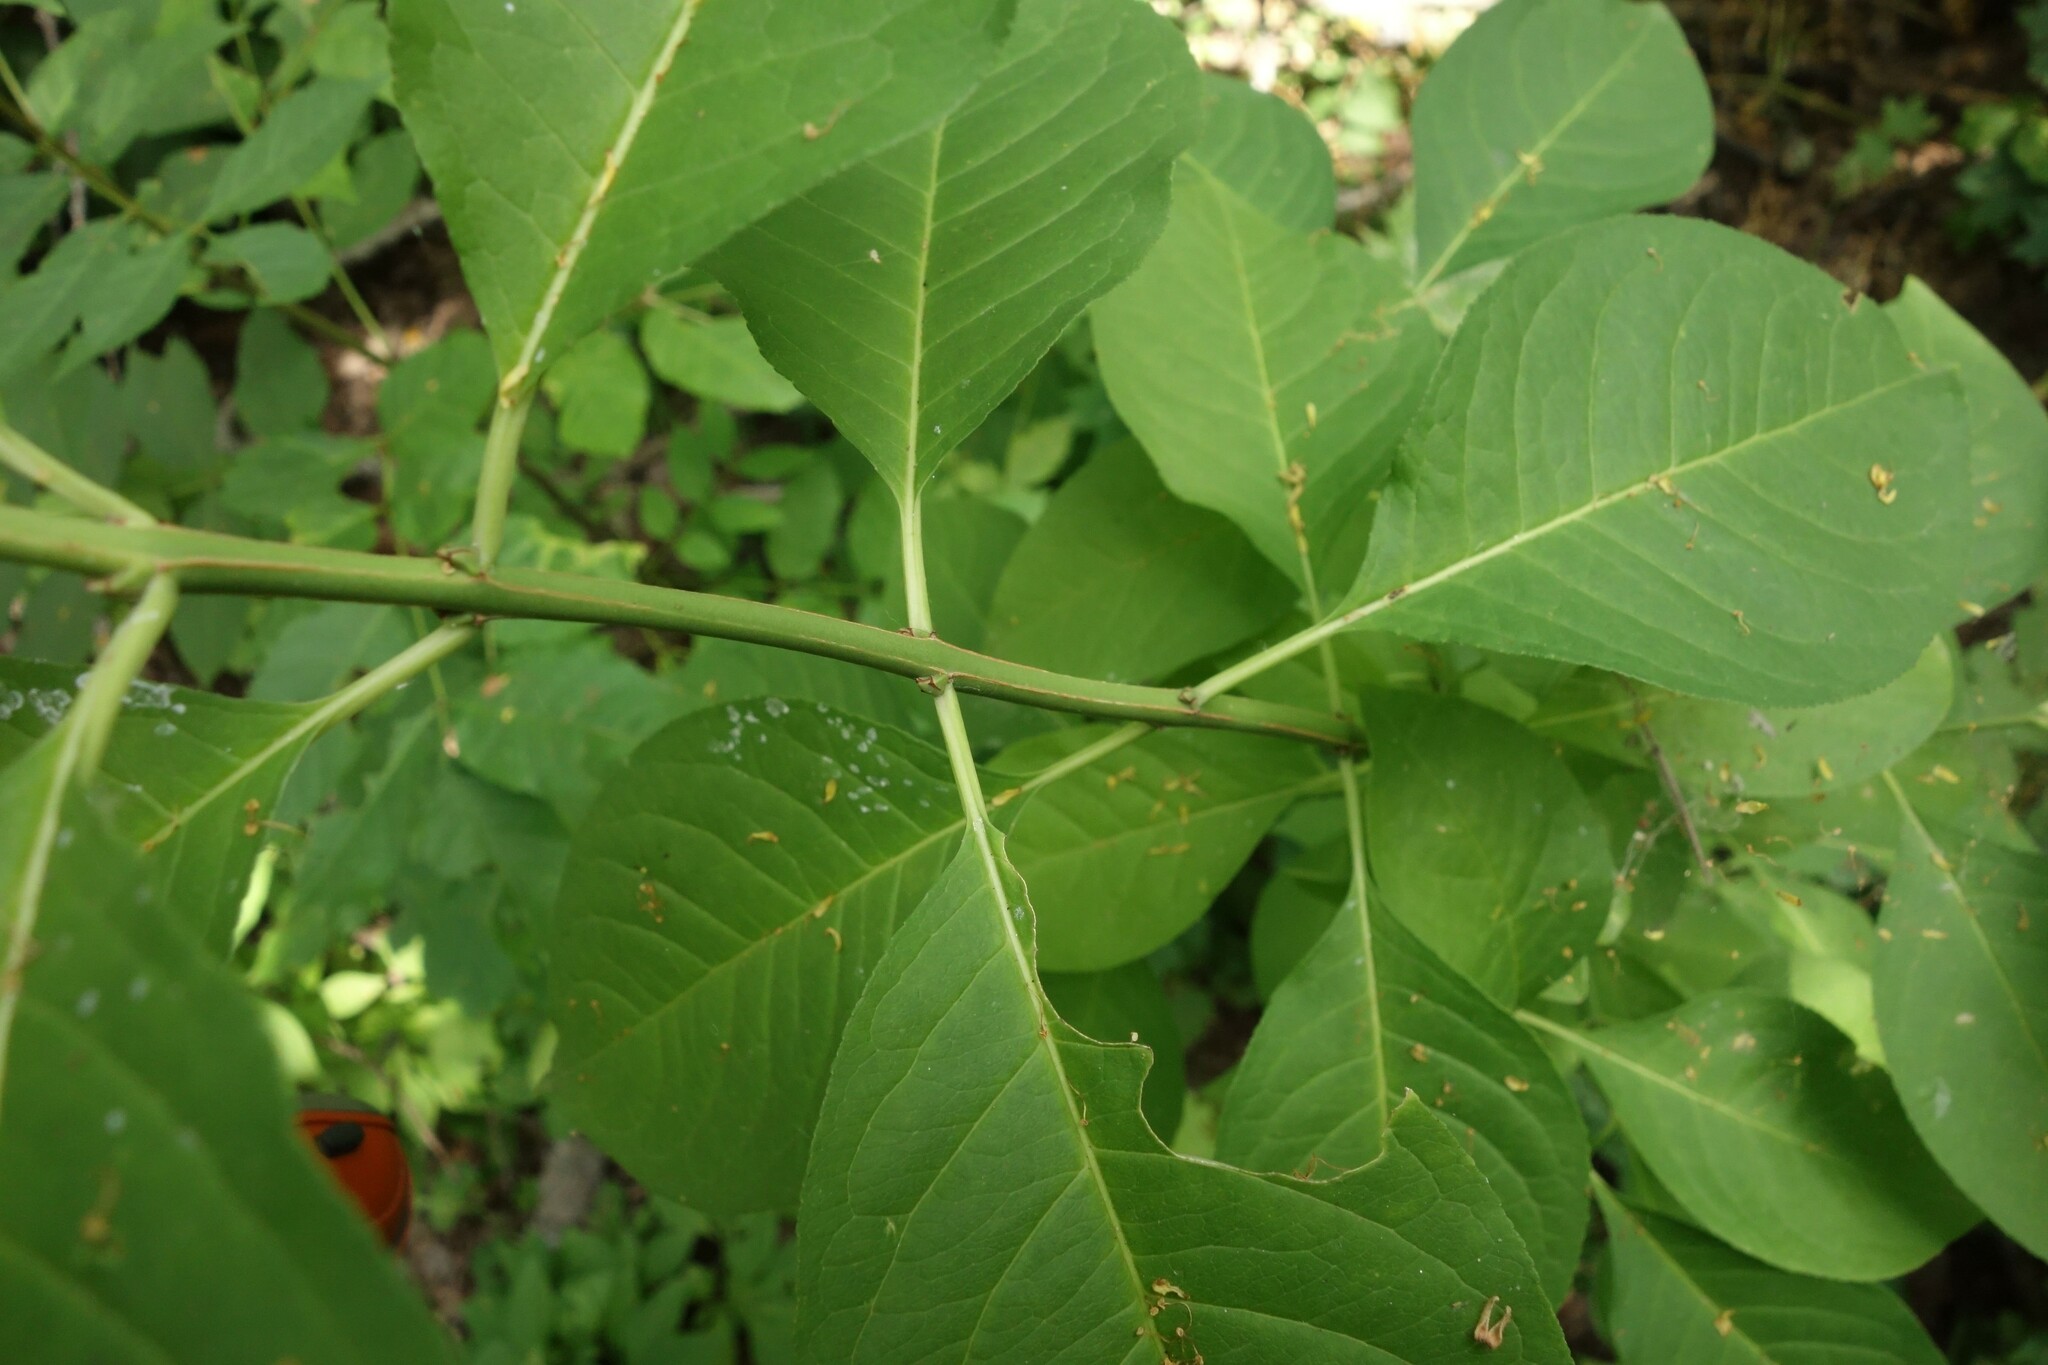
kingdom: Plantae
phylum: Tracheophyta
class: Magnoliopsida
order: Celastrales
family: Celastraceae
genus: Euonymus
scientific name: Euonymus europaeus
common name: Spindle
